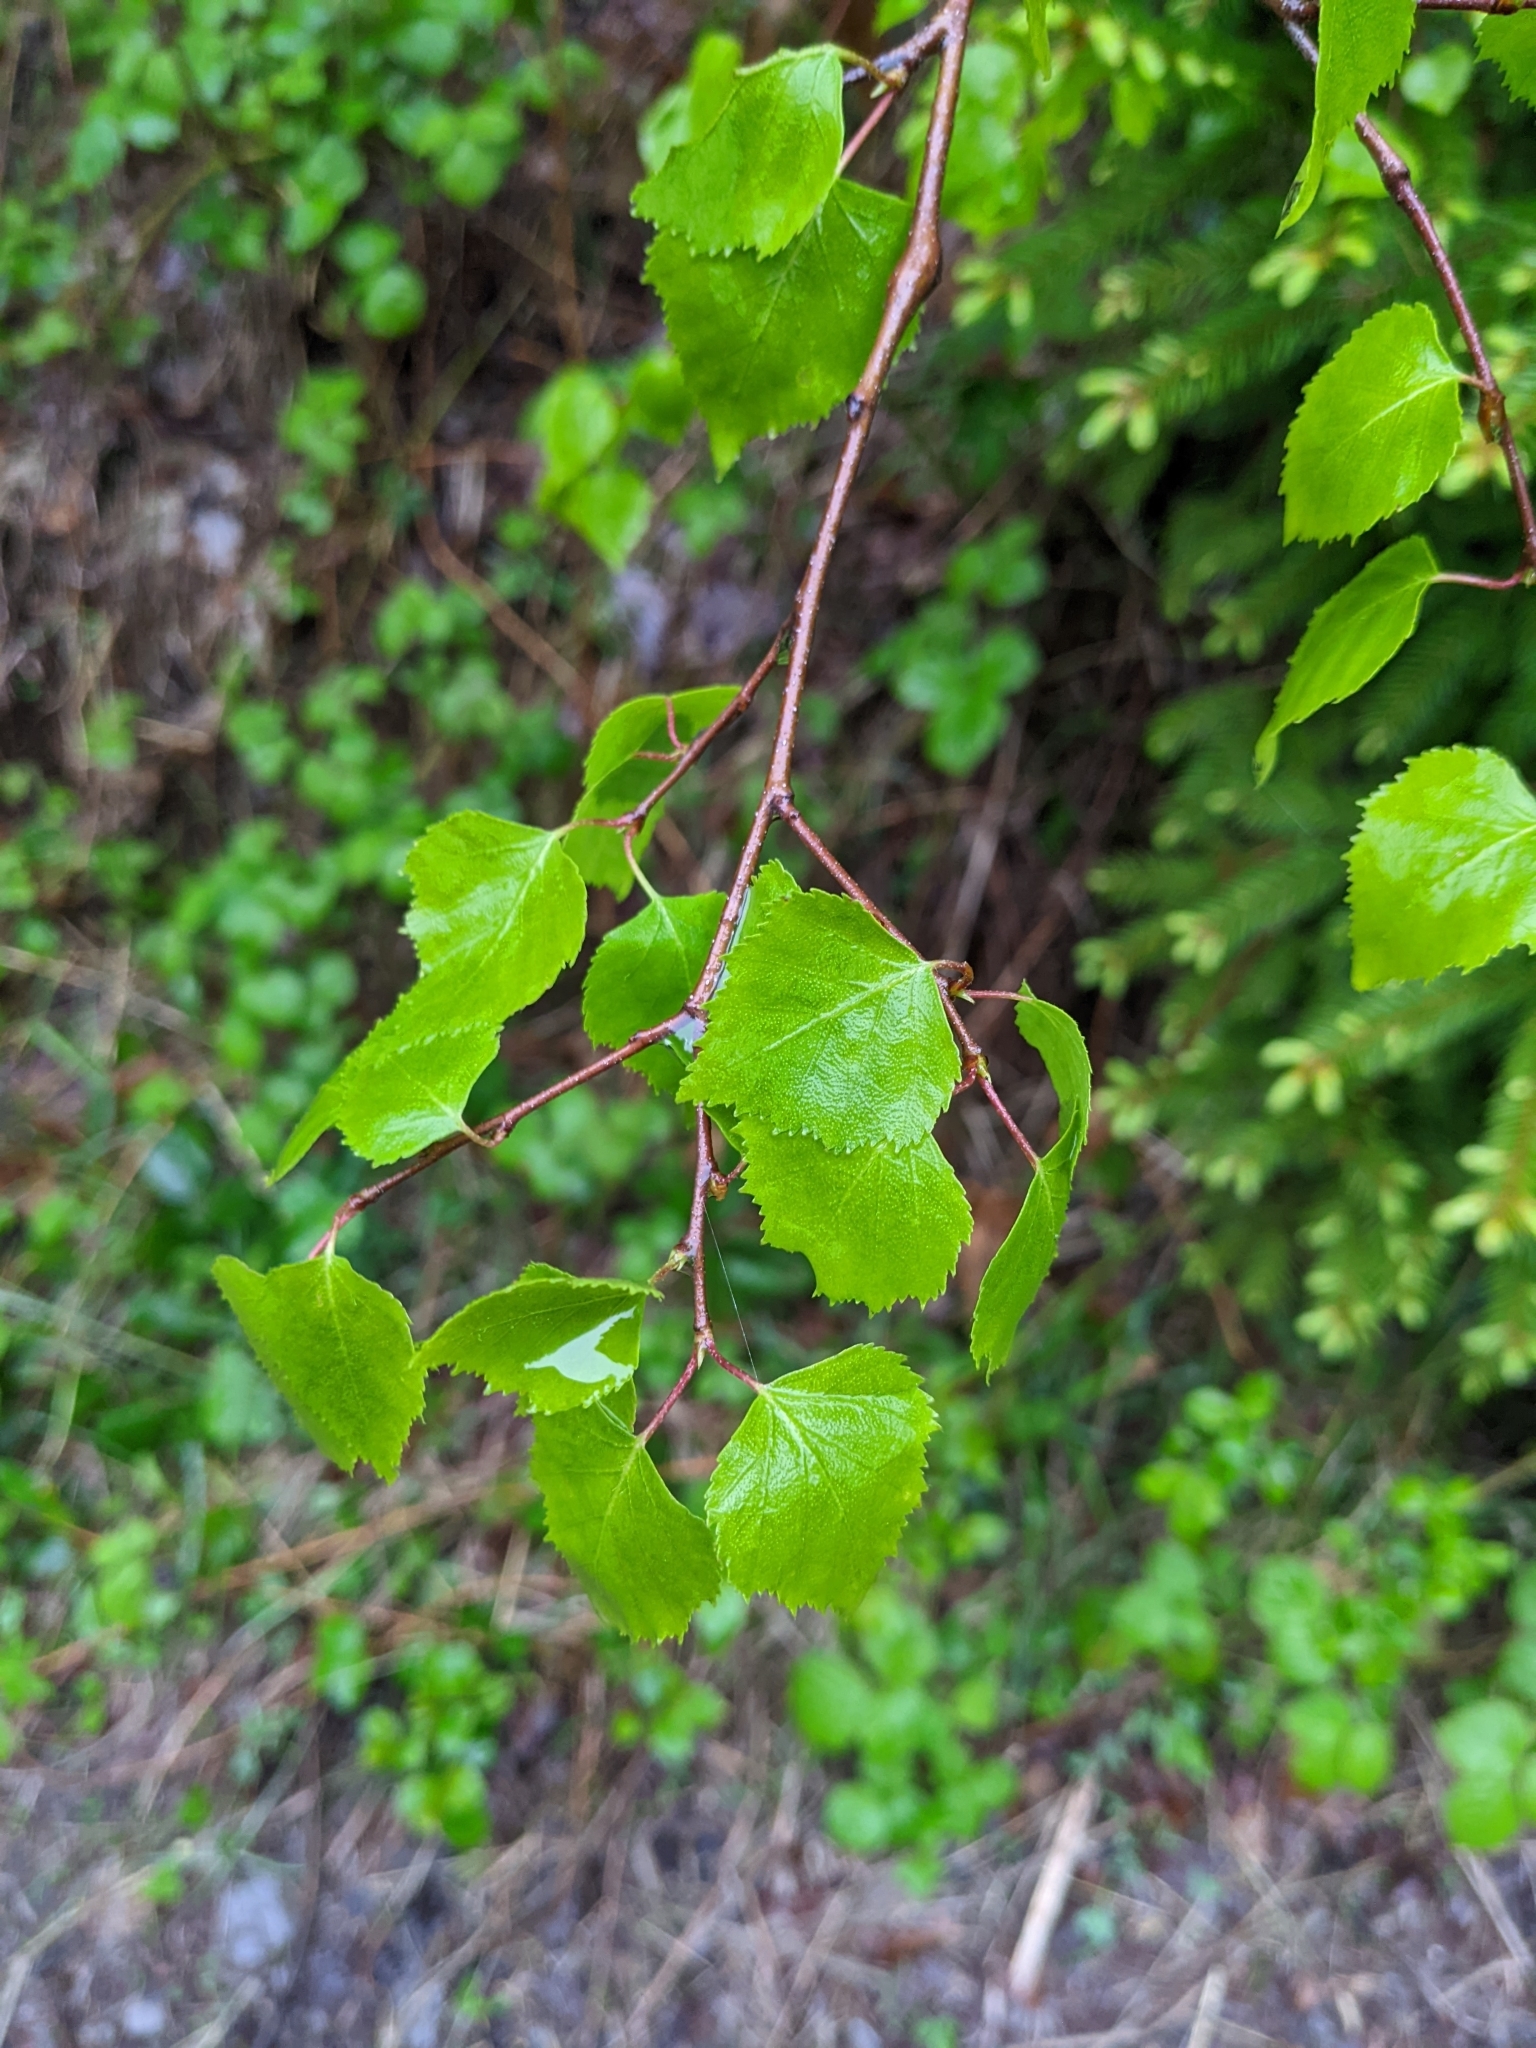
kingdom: Plantae
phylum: Tracheophyta
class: Magnoliopsida
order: Fagales
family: Betulaceae
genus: Betula
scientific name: Betula pendula
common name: Silver birch
